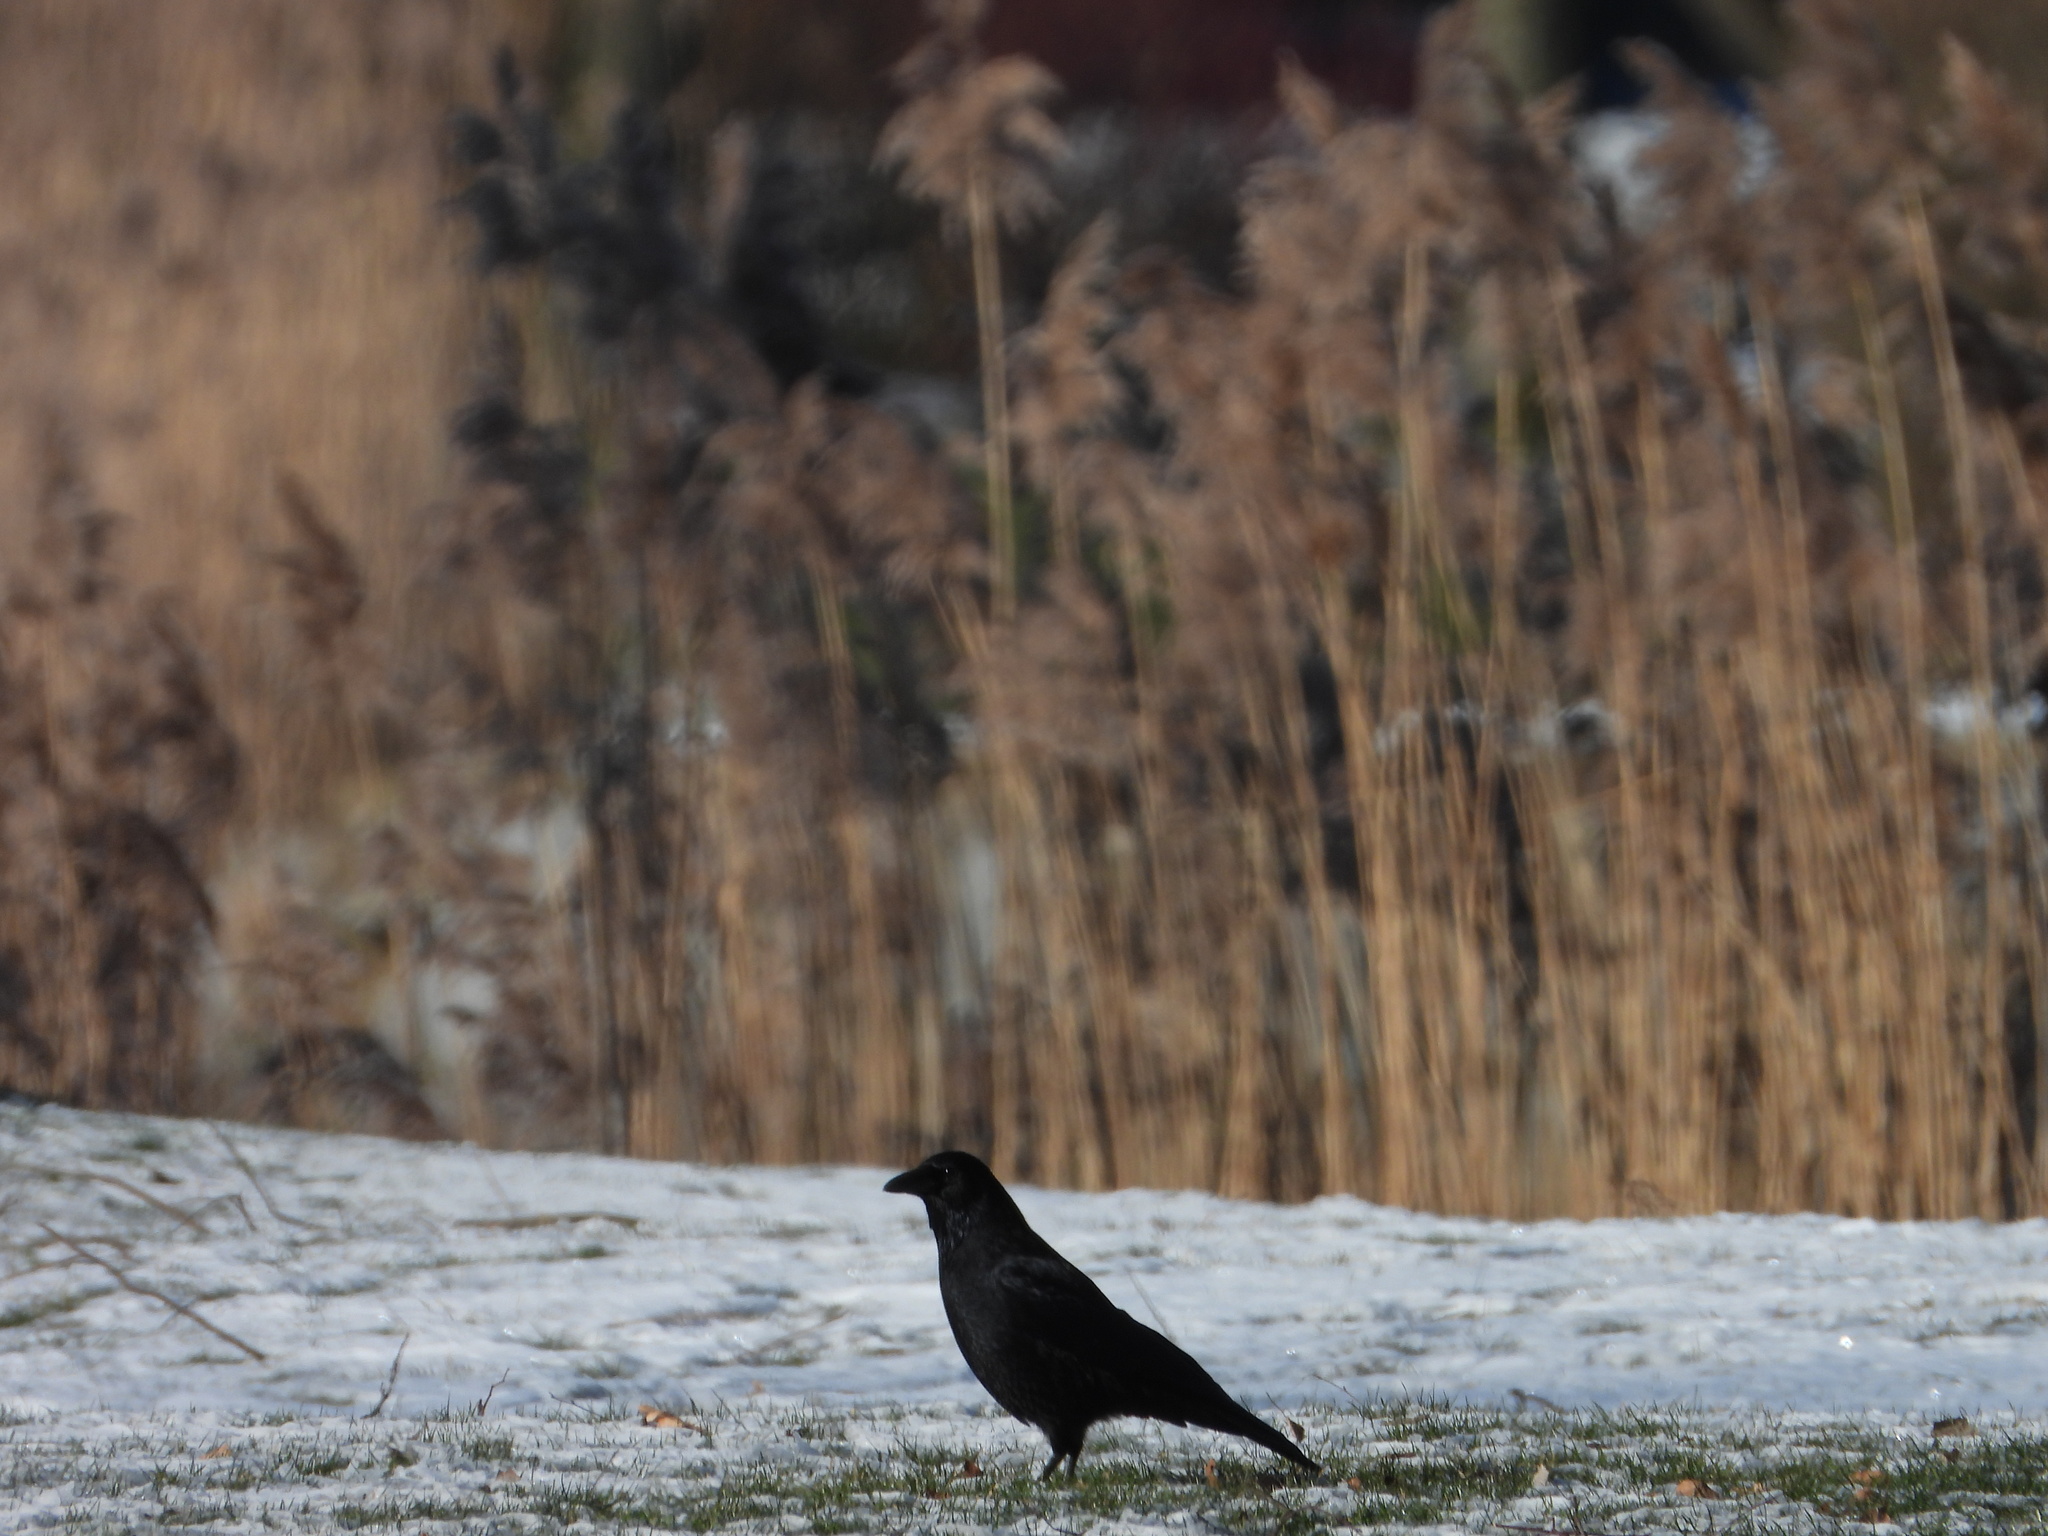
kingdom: Animalia
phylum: Chordata
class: Aves
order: Passeriformes
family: Corvidae
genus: Corvus
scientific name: Corvus corone
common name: Carrion crow
